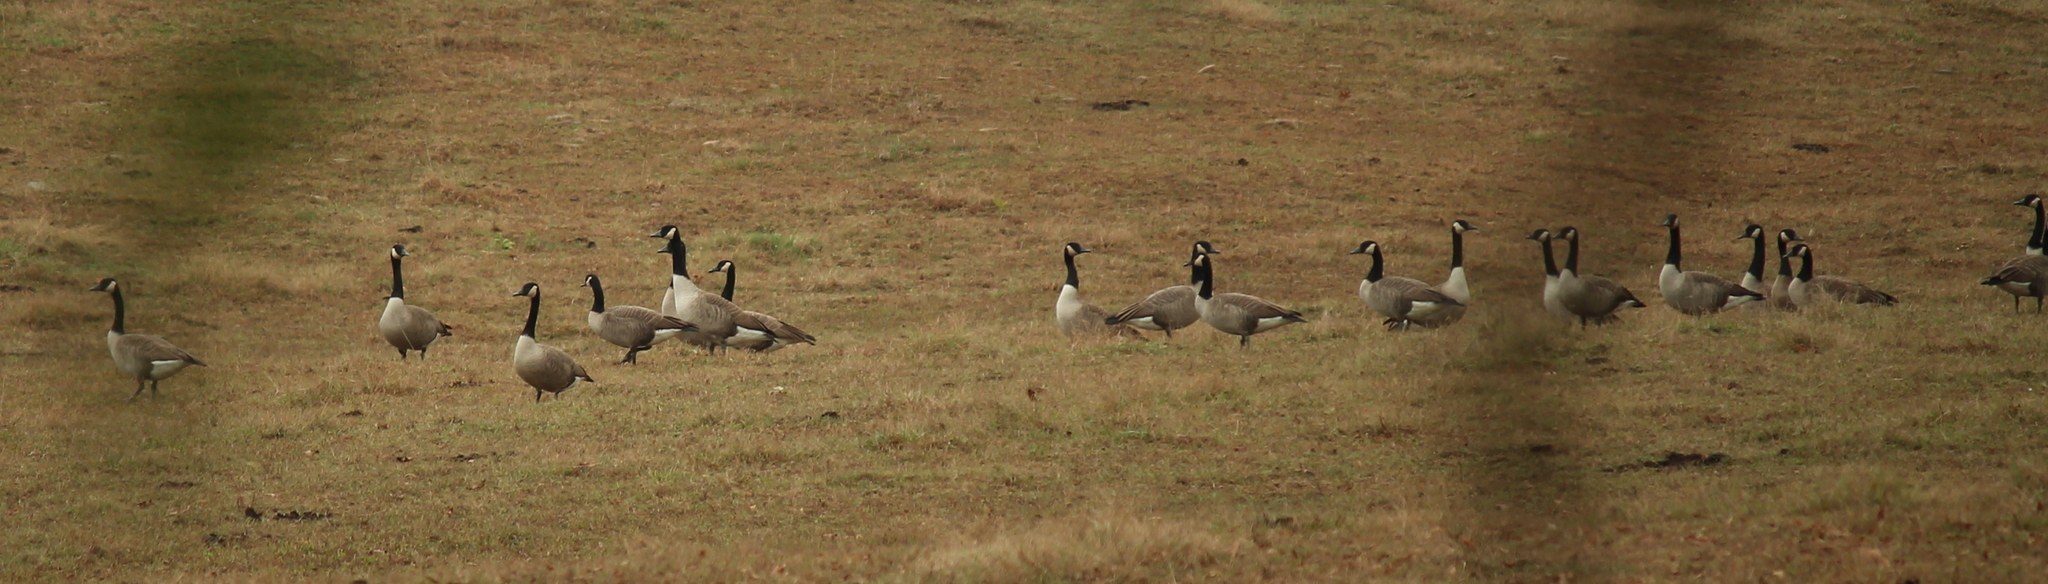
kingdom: Animalia
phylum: Chordata
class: Aves
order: Anseriformes
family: Anatidae
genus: Branta
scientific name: Branta canadensis
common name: Canada goose
